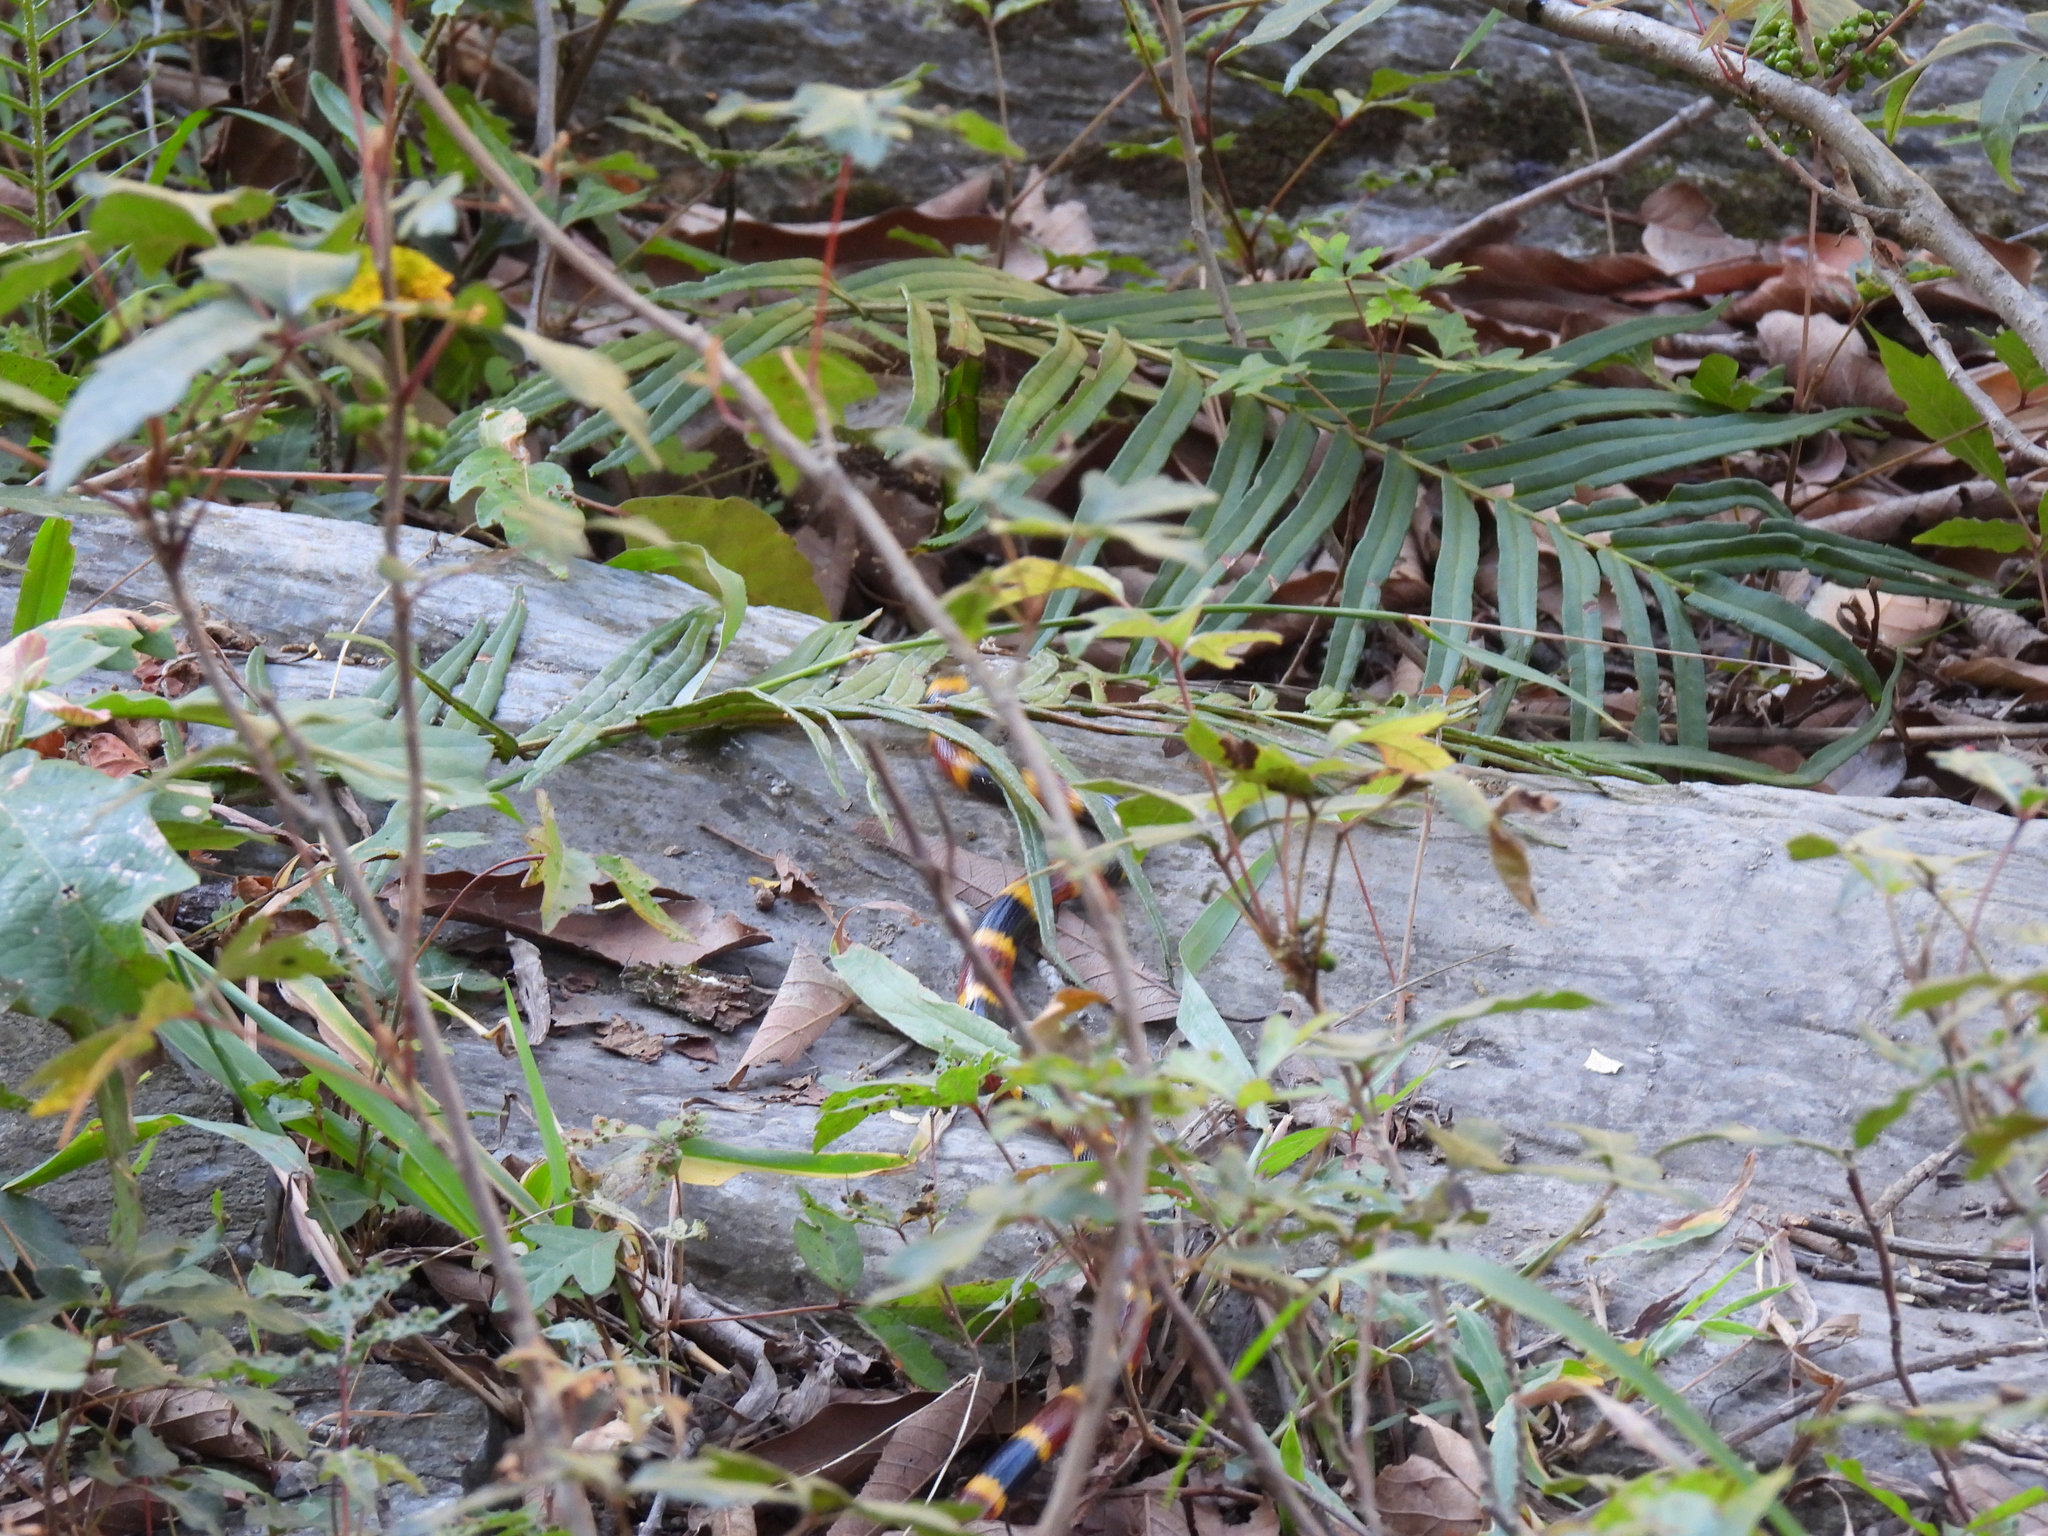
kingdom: Animalia
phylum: Chordata
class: Squamata
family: Elapidae
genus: Micrurus
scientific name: Micrurus tener
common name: Texas coral snake
